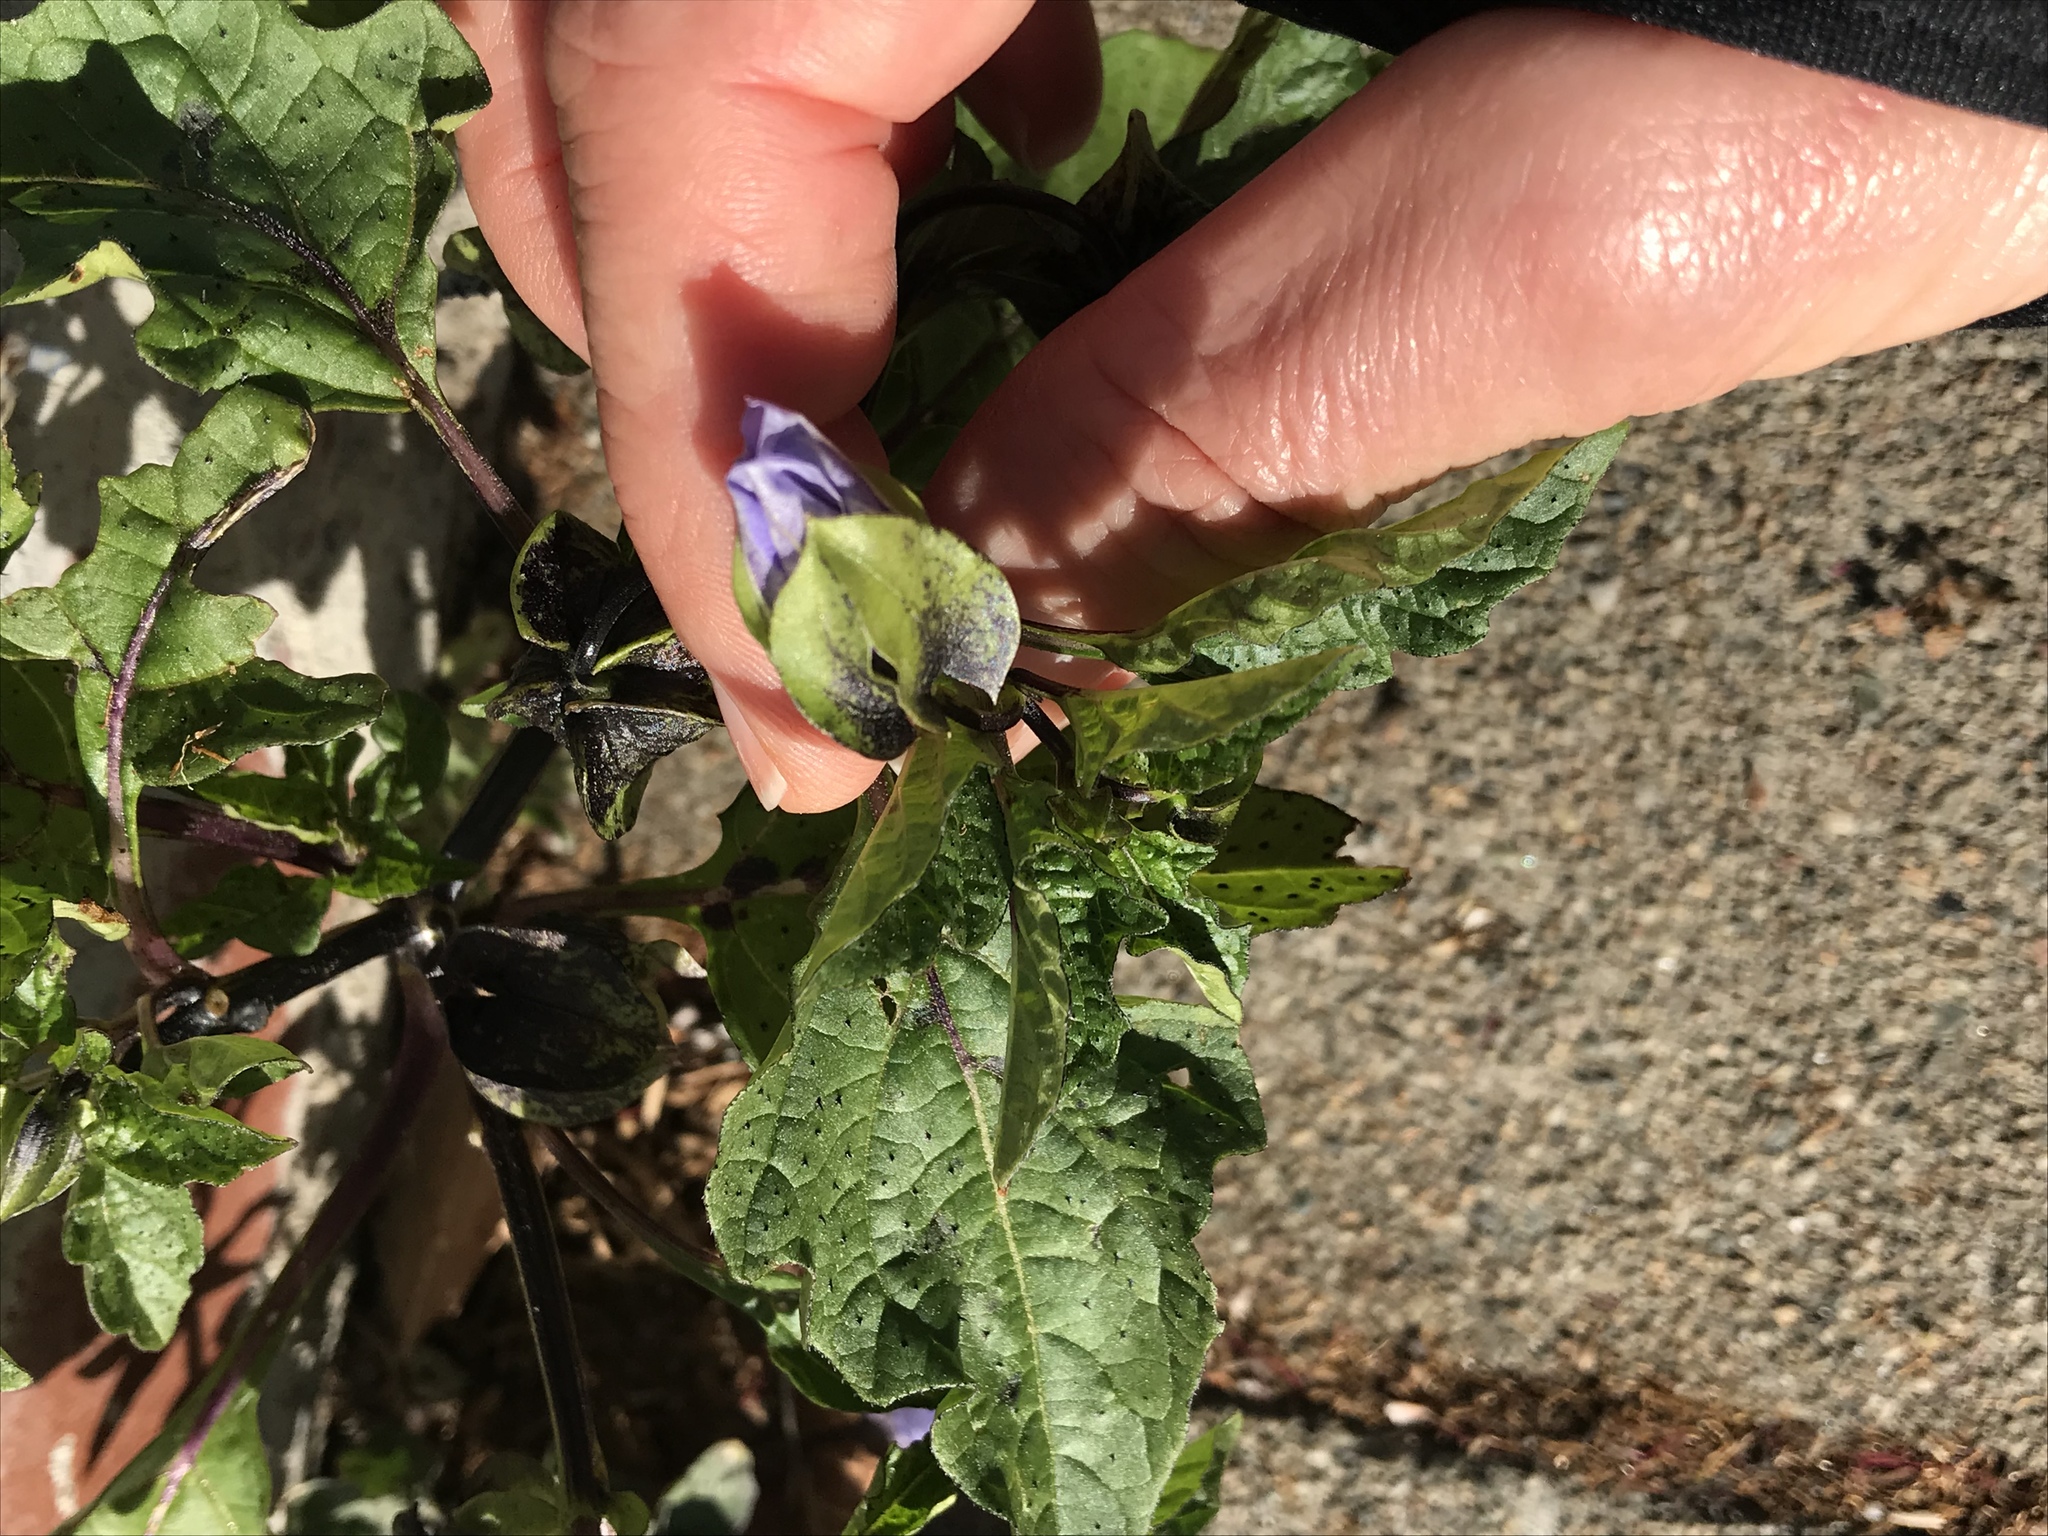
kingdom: Plantae
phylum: Tracheophyta
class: Magnoliopsida
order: Solanales
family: Solanaceae
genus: Nicandra
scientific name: Nicandra physalodes
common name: Apple-of-peru
